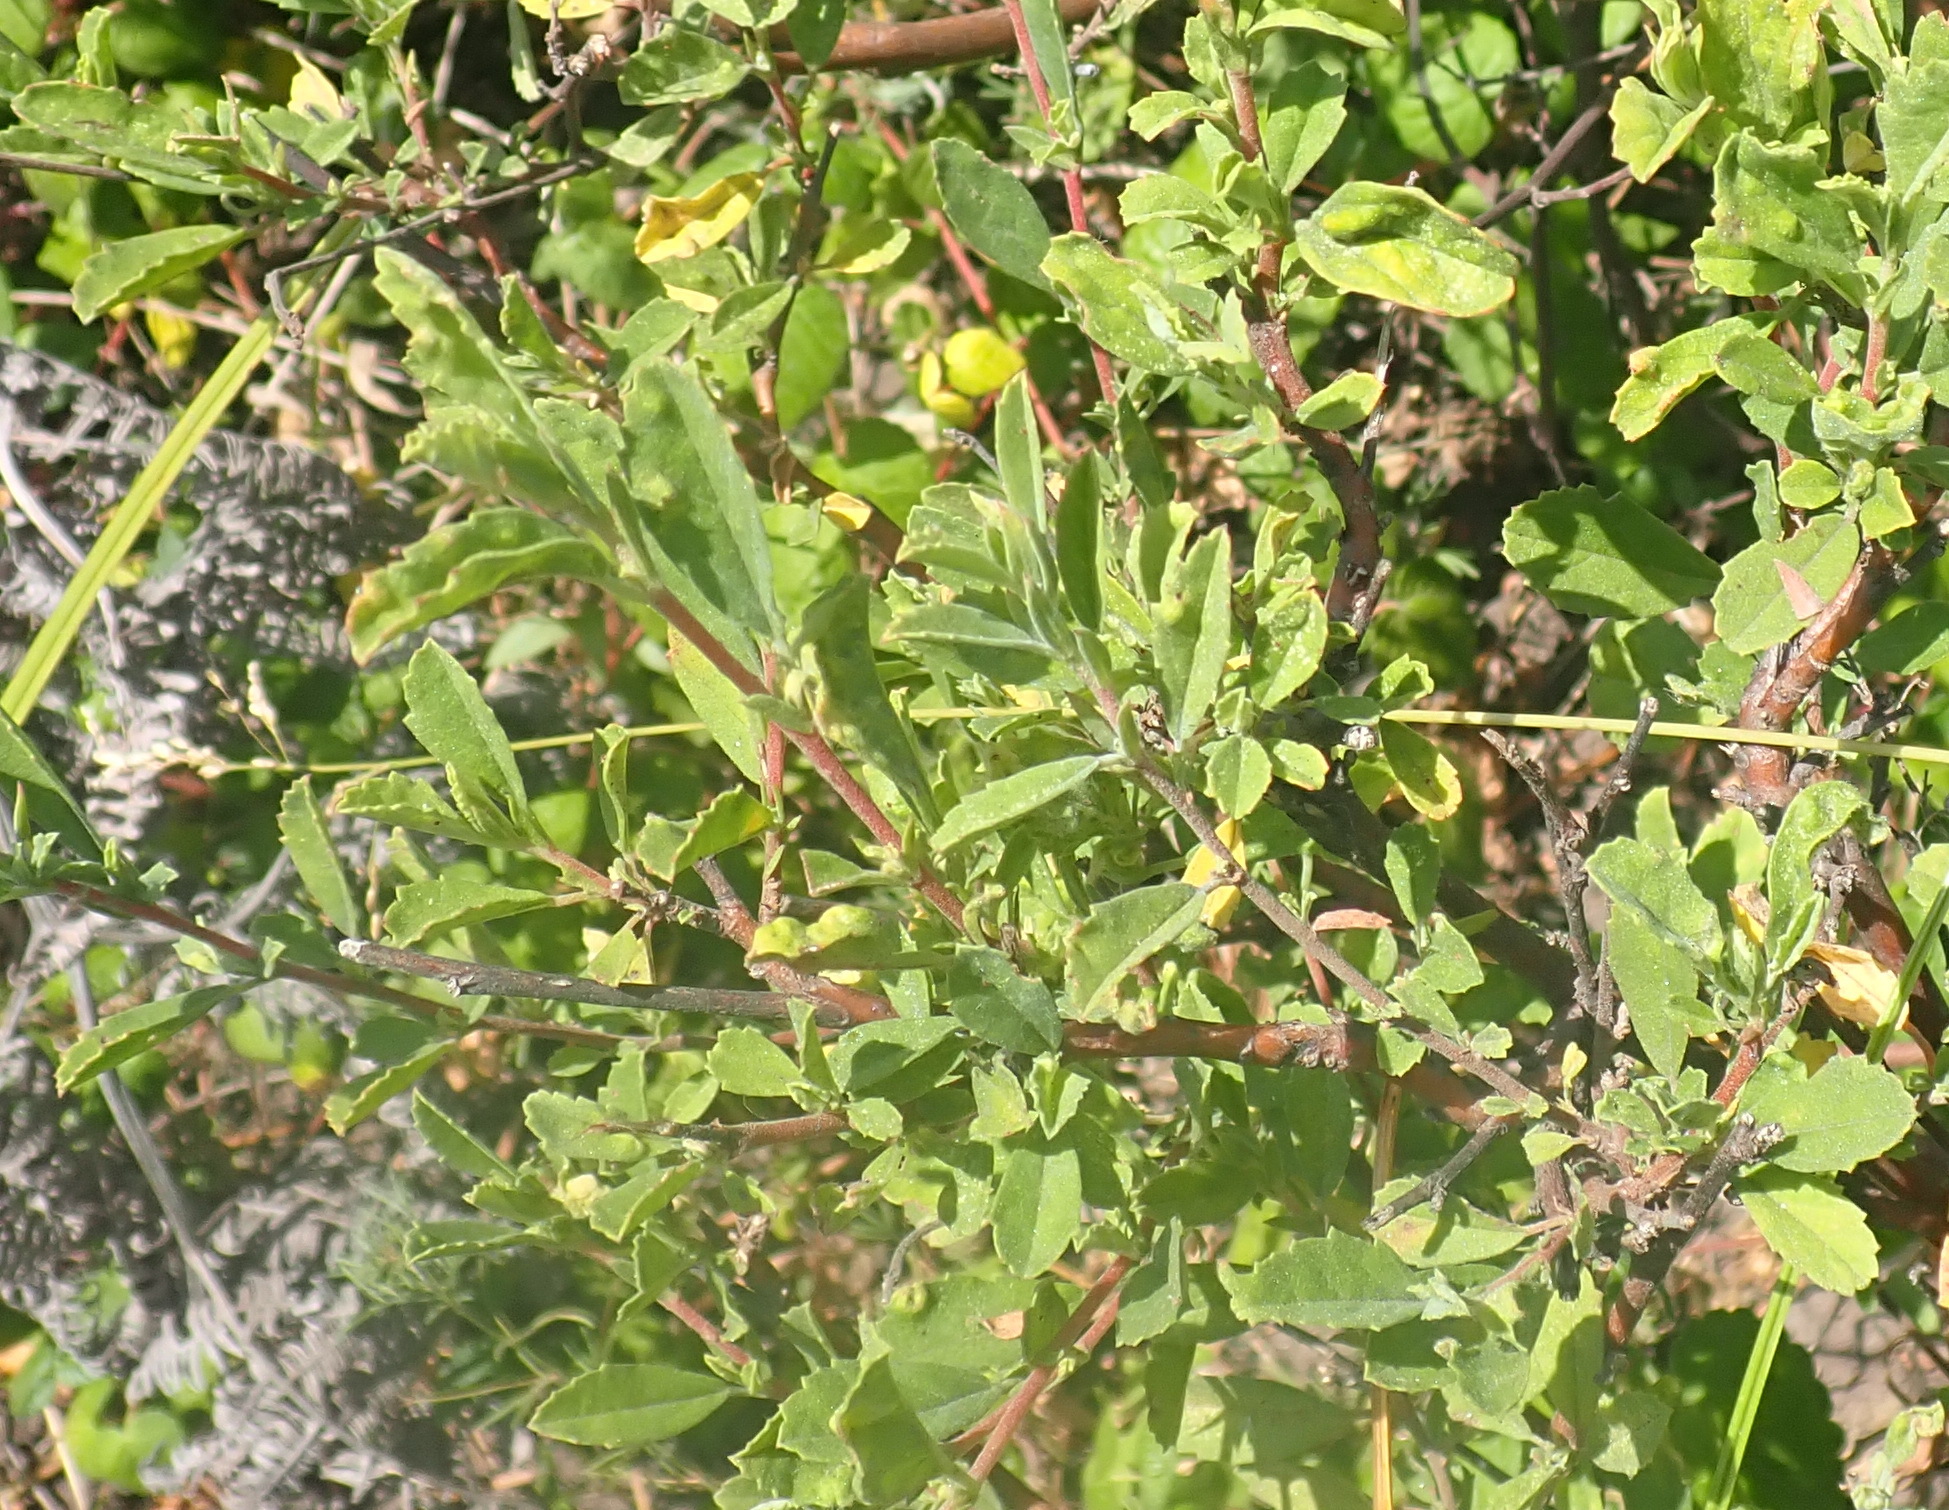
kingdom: Plantae
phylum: Tracheophyta
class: Magnoliopsida
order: Malvales
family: Malvaceae
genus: Hermannia
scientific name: Hermannia salviifolia
